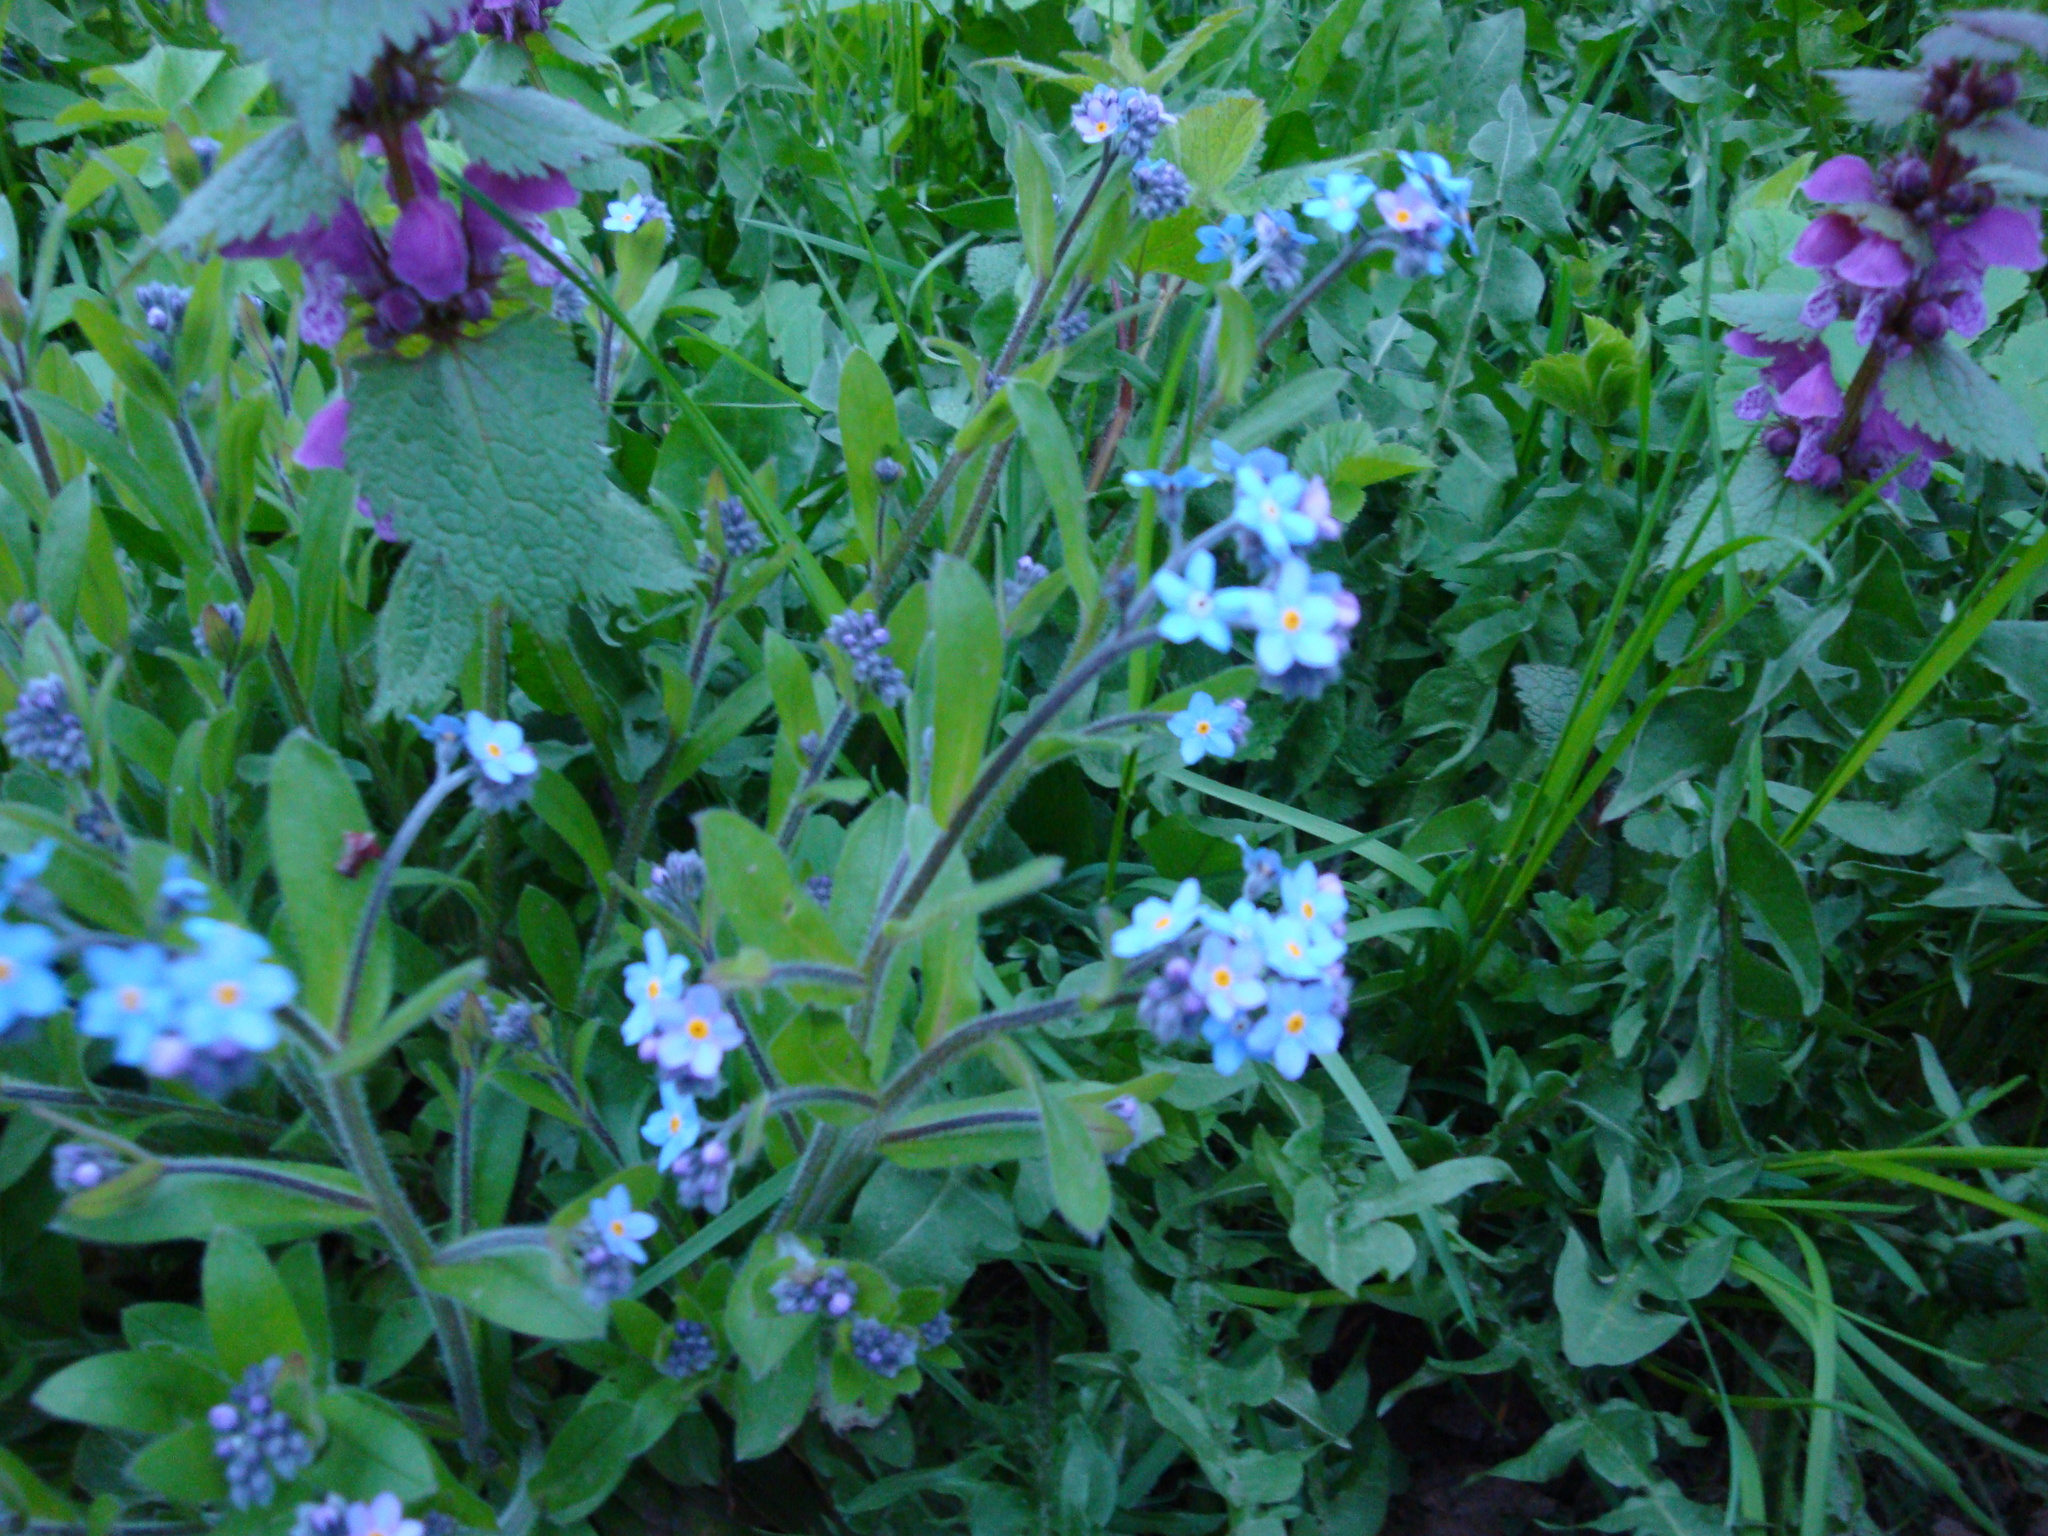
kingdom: Plantae
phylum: Tracheophyta
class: Magnoliopsida
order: Boraginales
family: Boraginaceae
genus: Myosotis
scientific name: Myosotis sylvatica
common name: Wood forget-me-not
